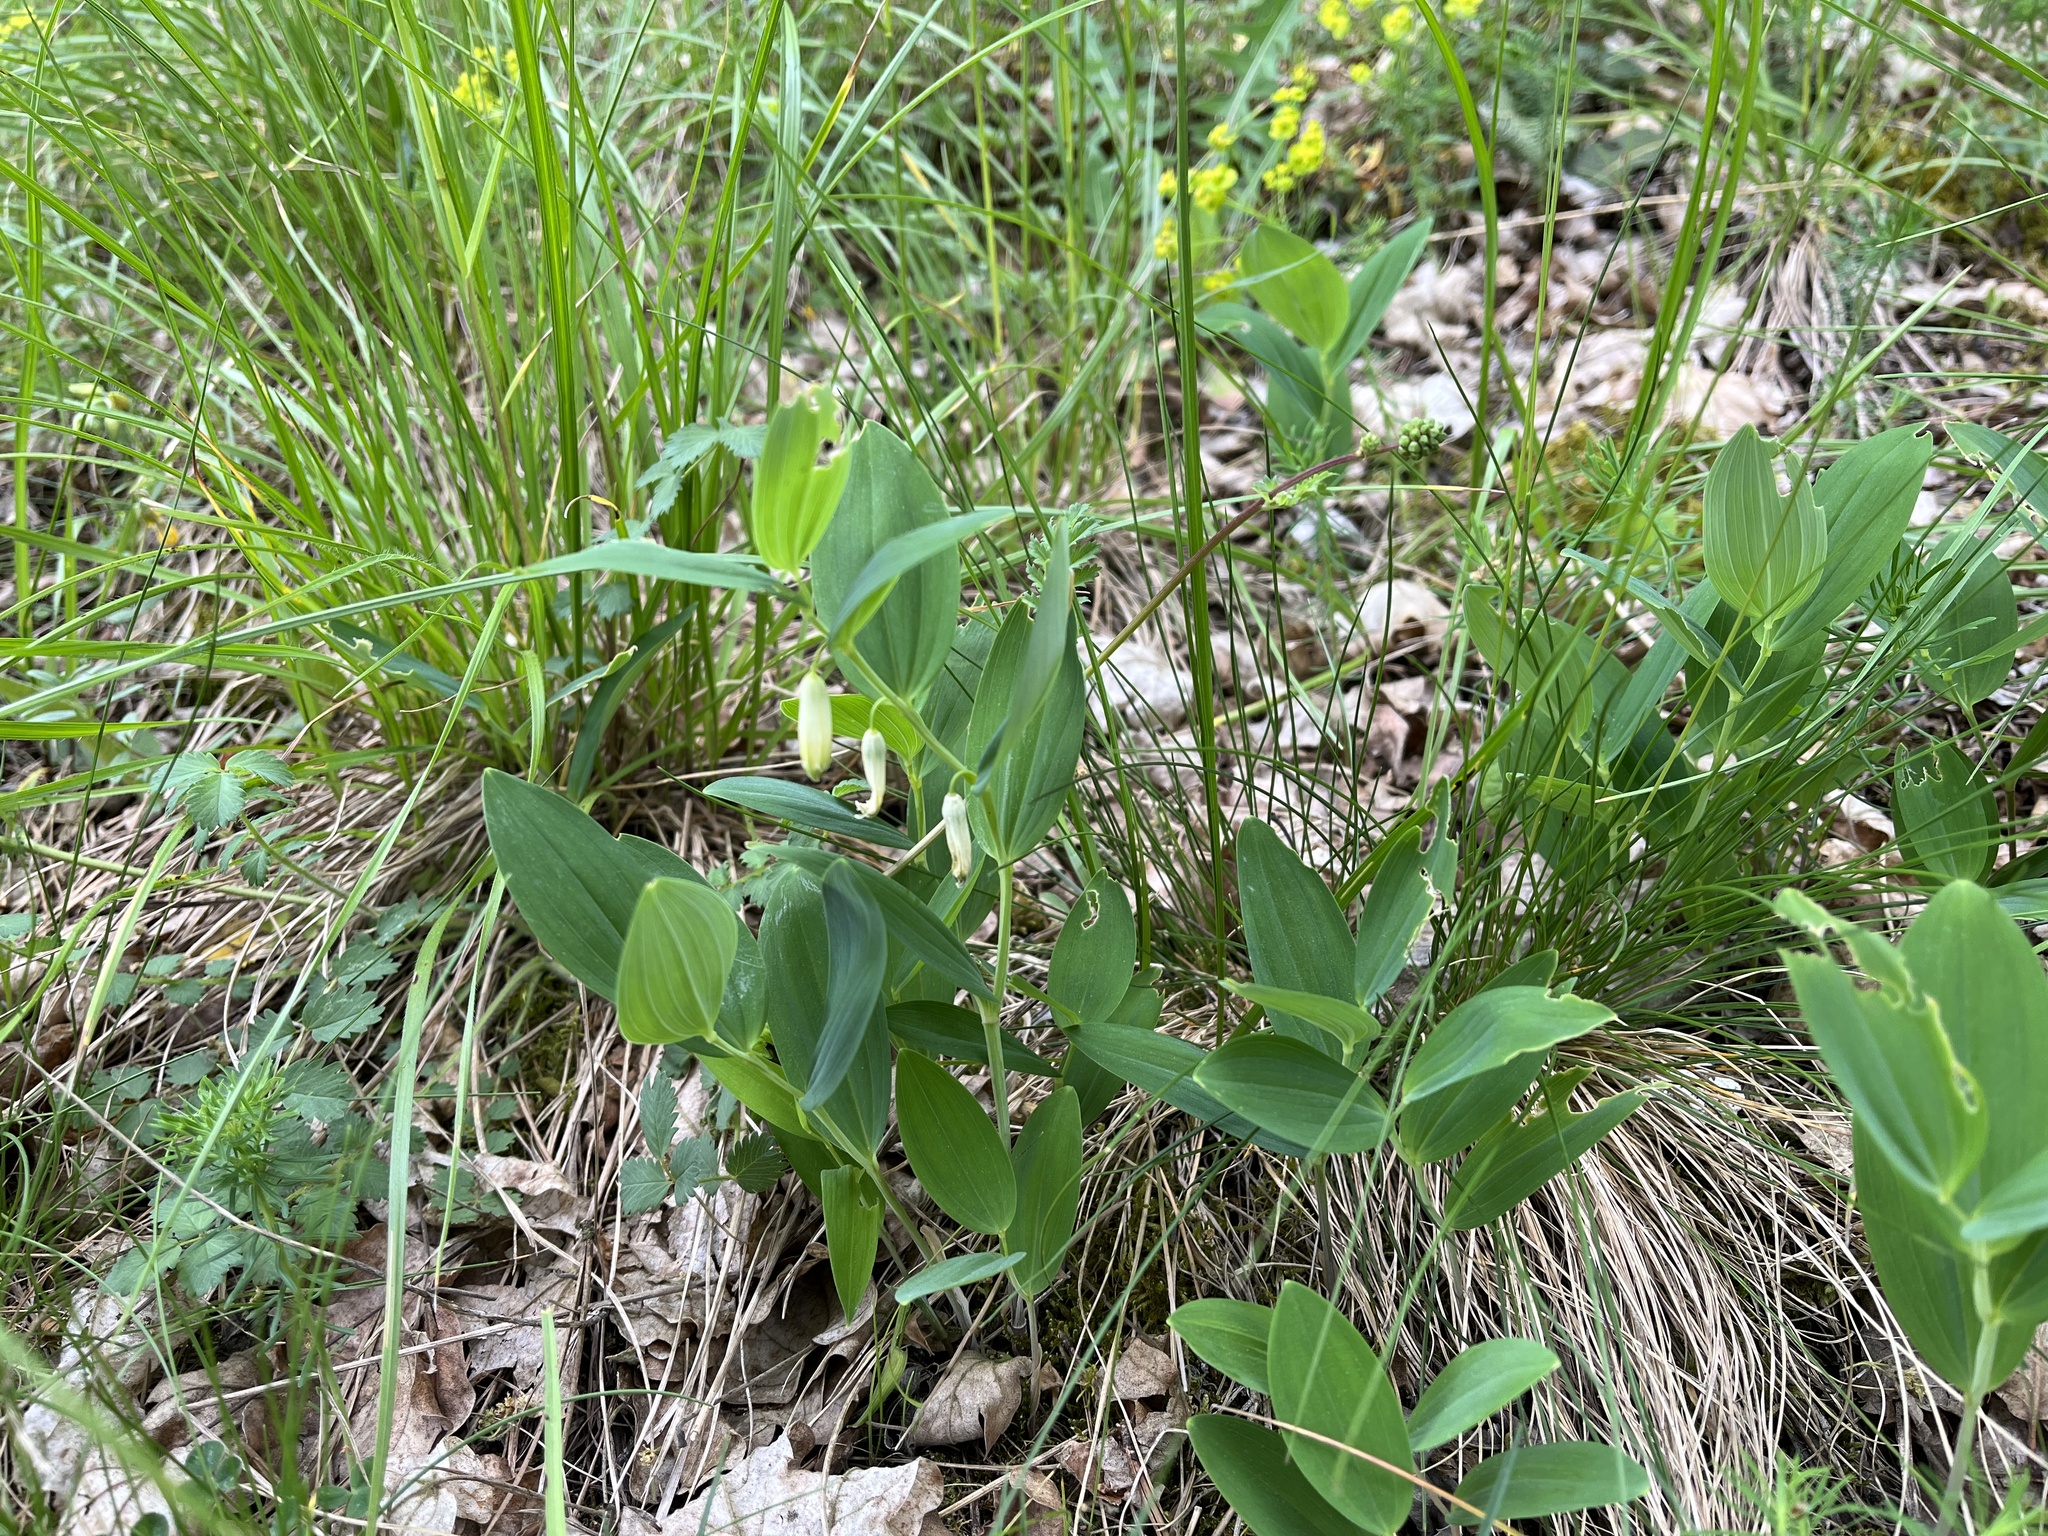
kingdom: Plantae
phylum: Tracheophyta
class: Liliopsida
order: Asparagales
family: Asparagaceae
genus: Polygonatum
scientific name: Polygonatum odoratum
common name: Angular solomon's-seal
